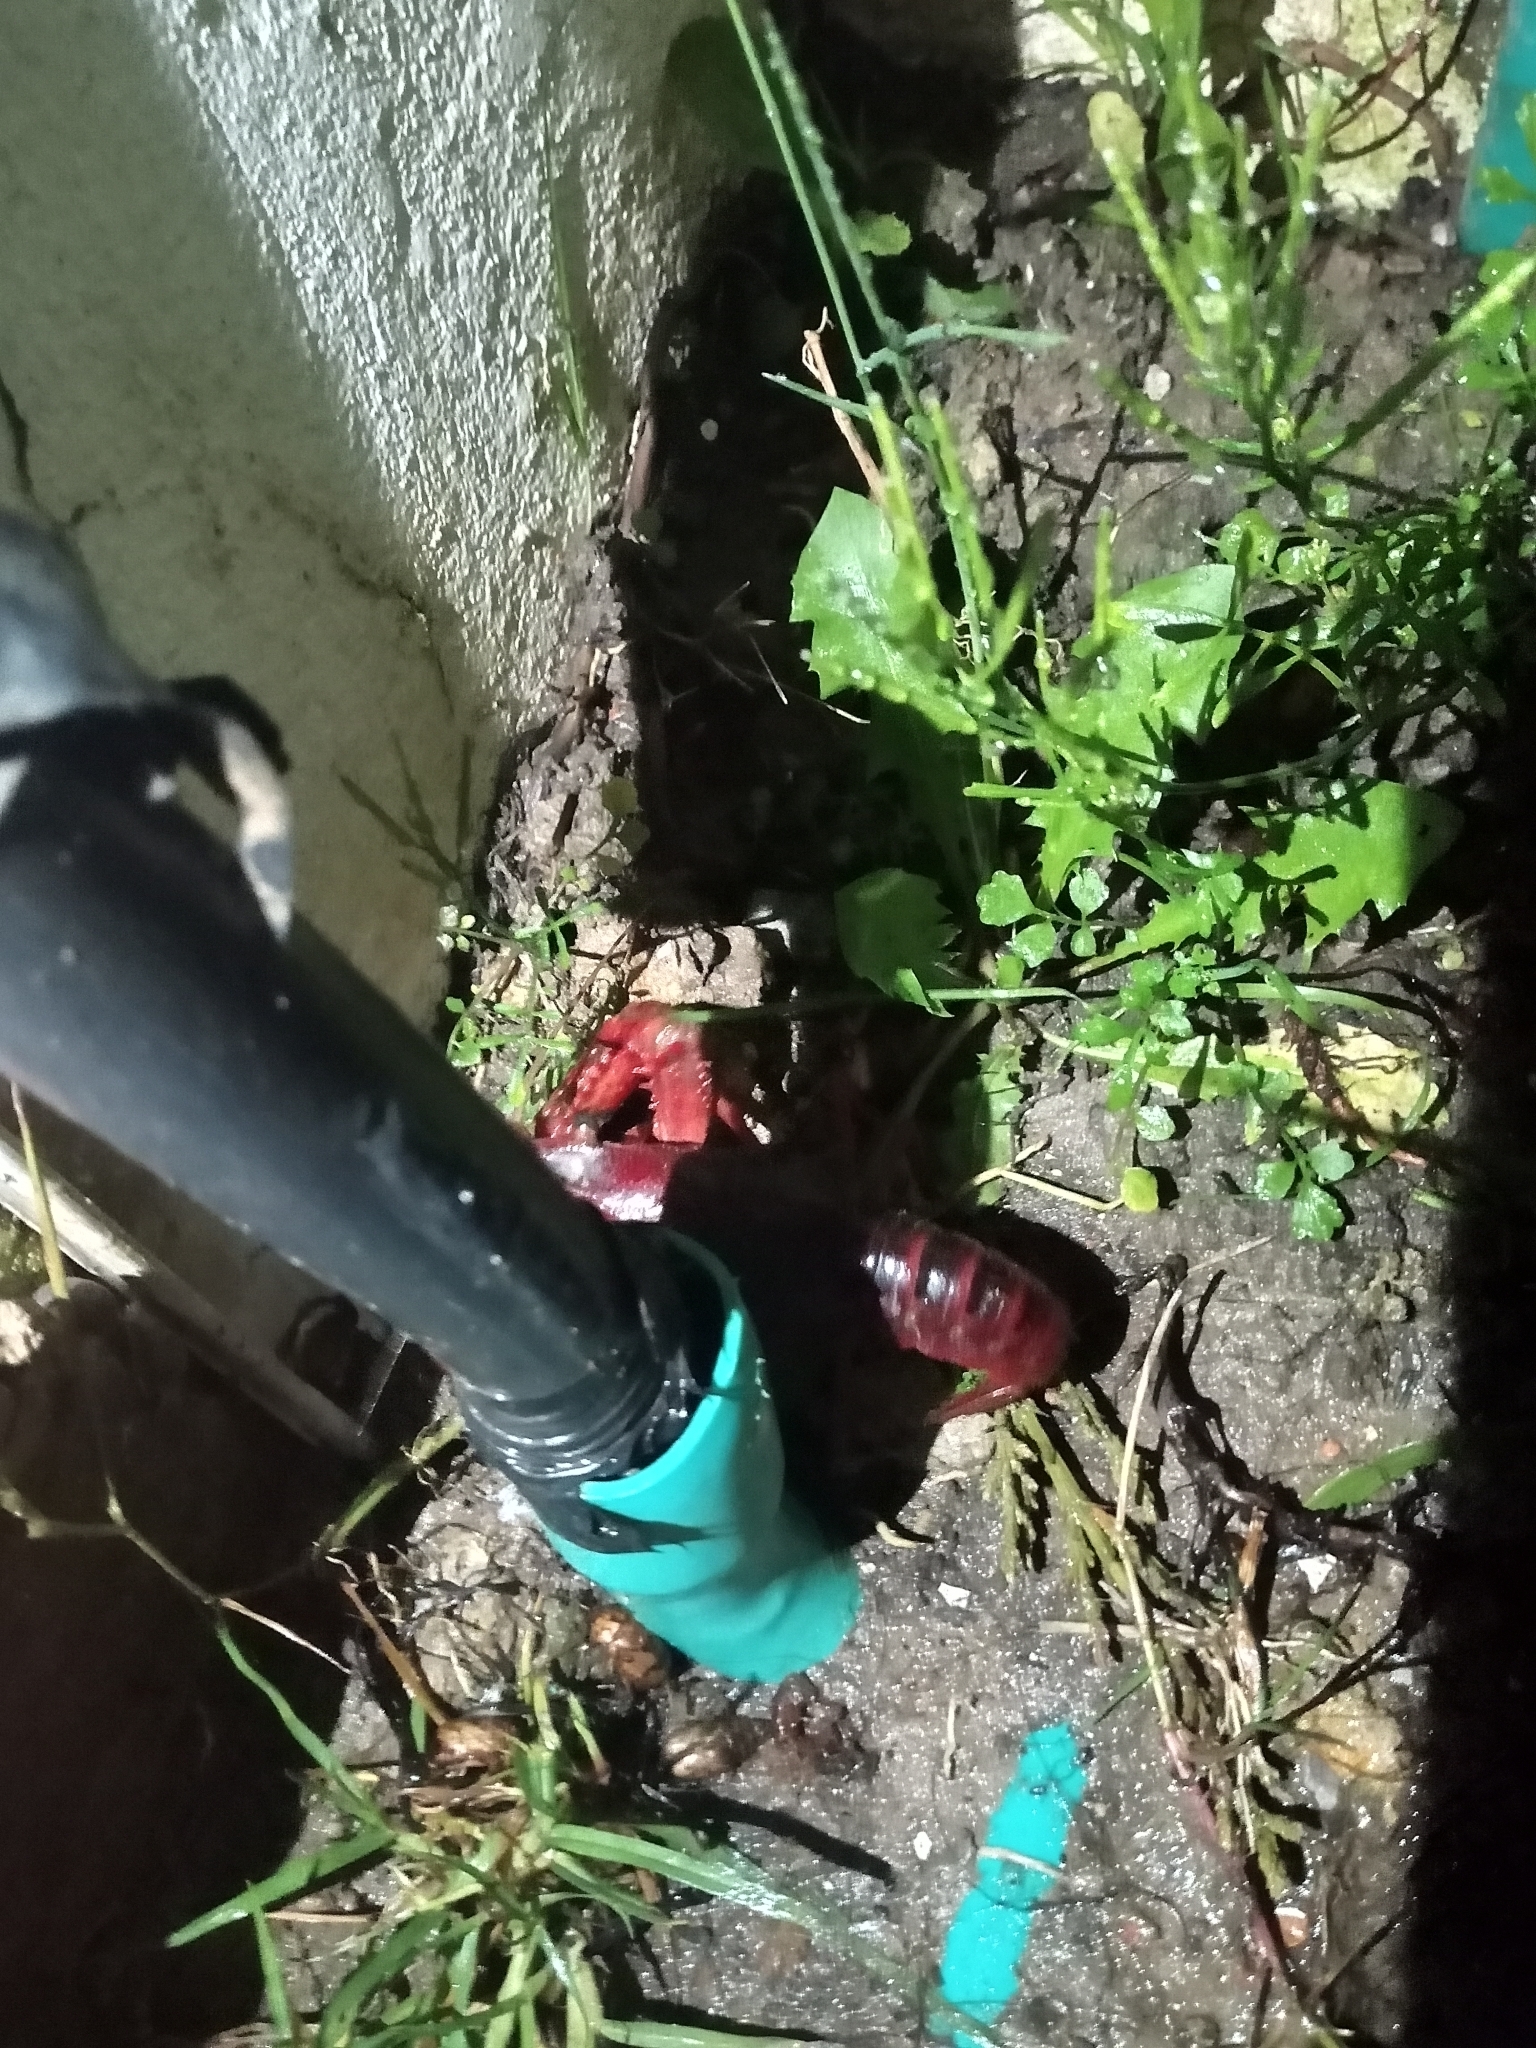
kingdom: Animalia
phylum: Arthropoda
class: Malacostraca
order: Decapoda
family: Cambaridae
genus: Procambarus
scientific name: Procambarus clarkii
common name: Red swamp crayfish
